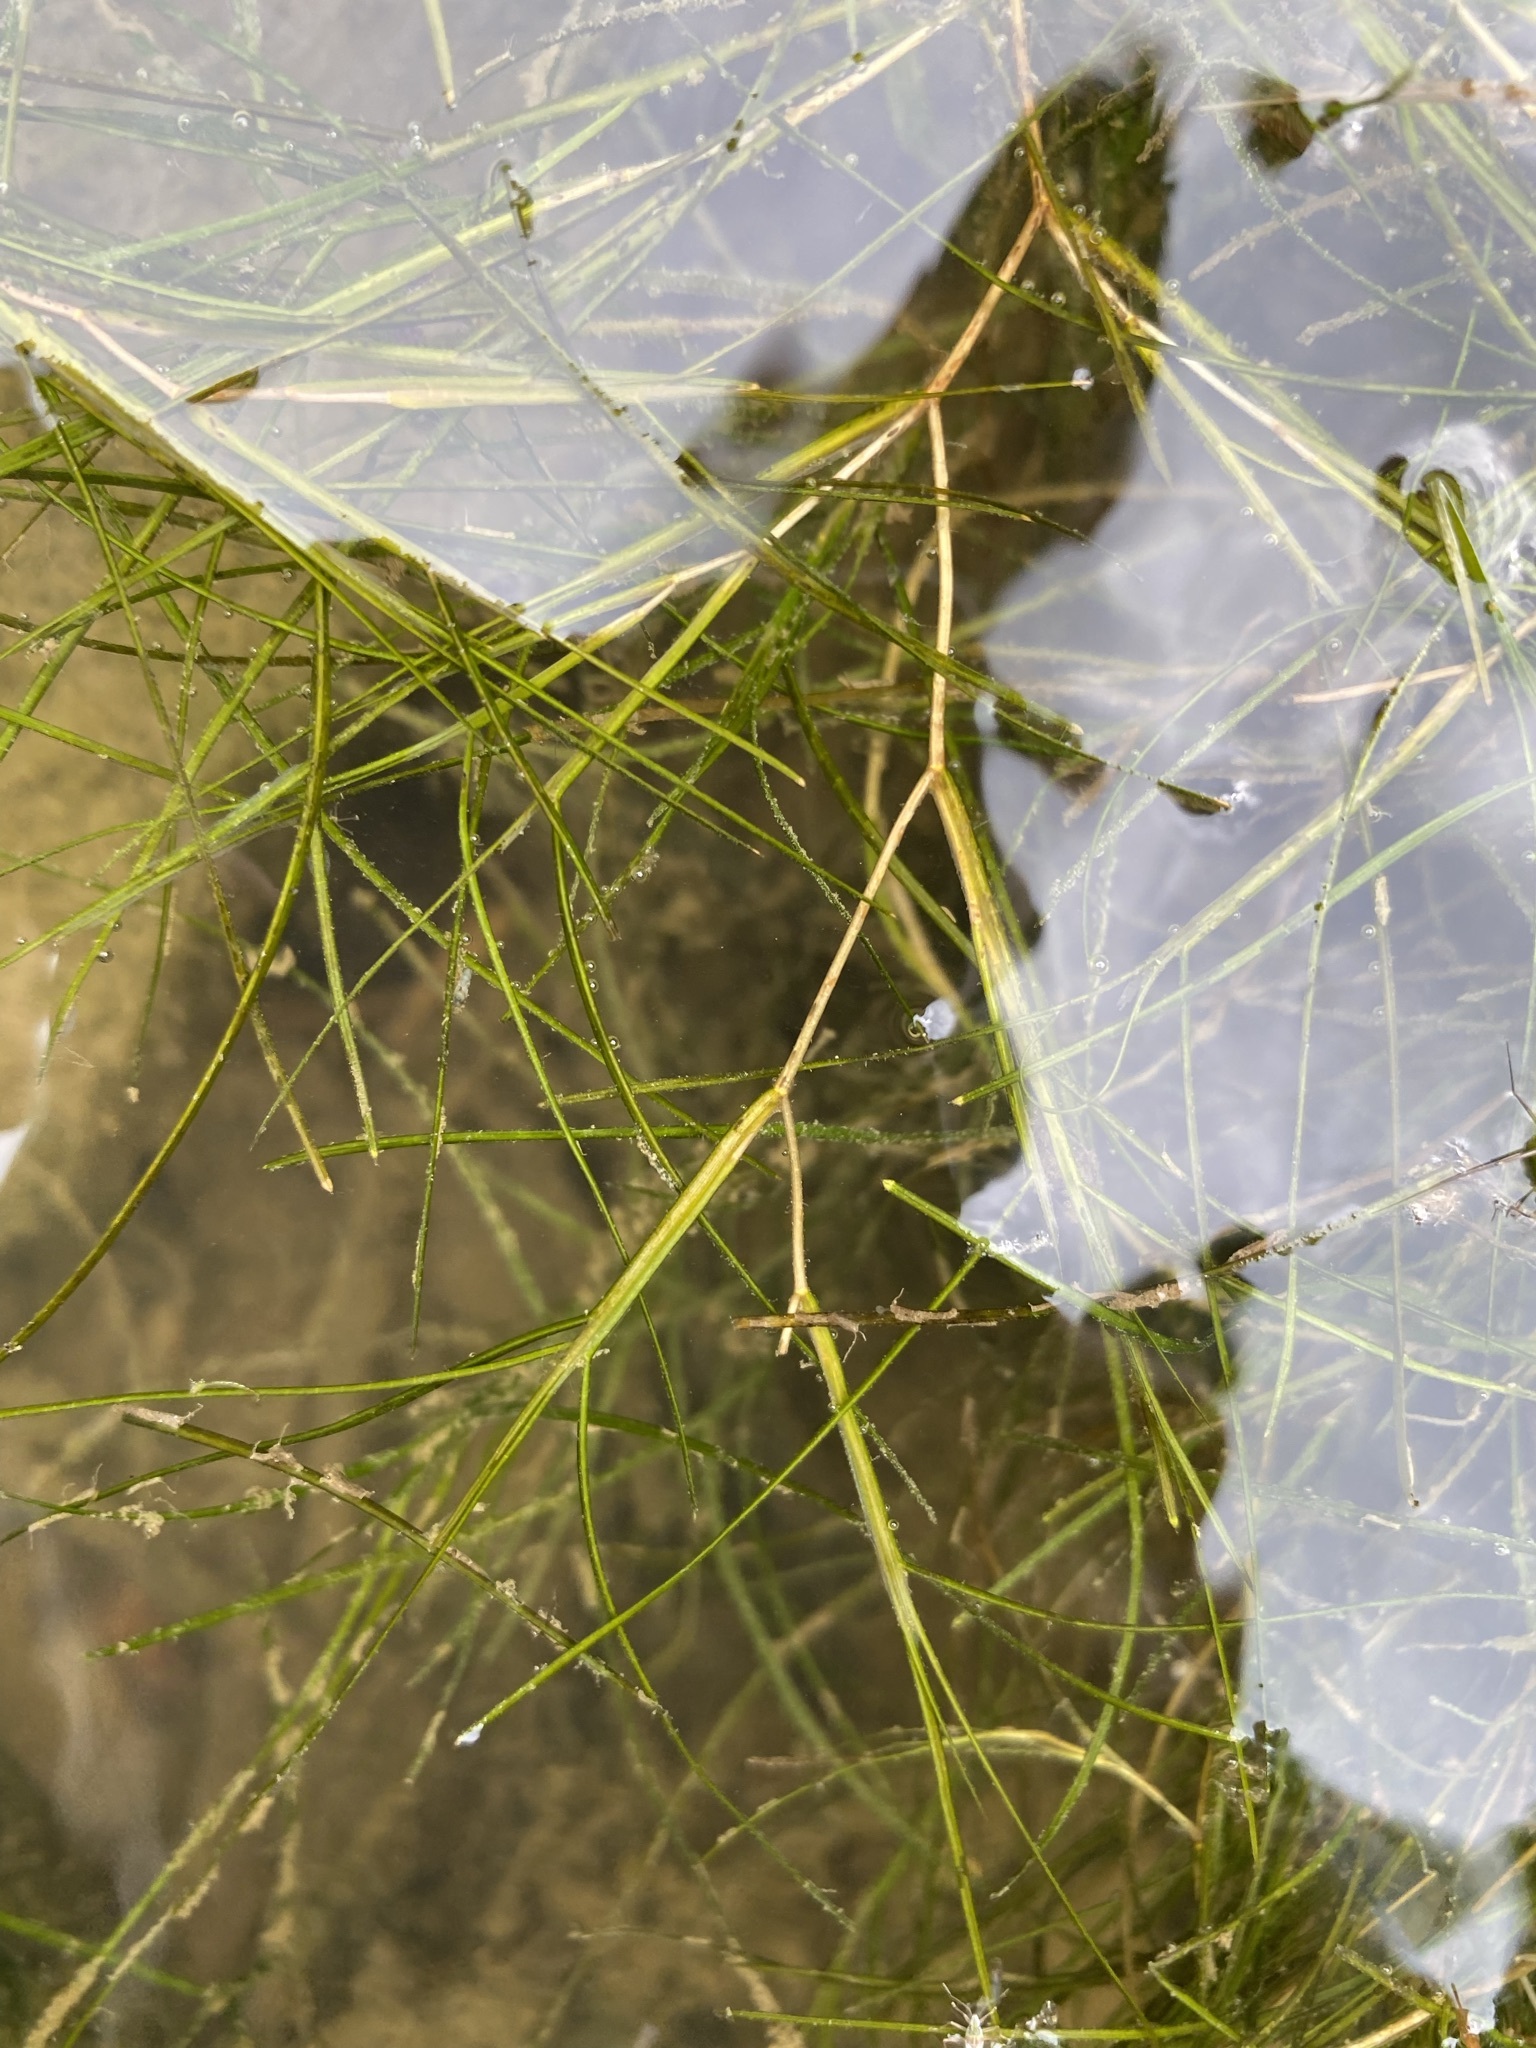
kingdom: Plantae
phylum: Tracheophyta
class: Liliopsida
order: Alismatales
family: Potamogetonaceae
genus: Stuckenia
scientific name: Stuckenia pectinata
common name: Sago pondweed
